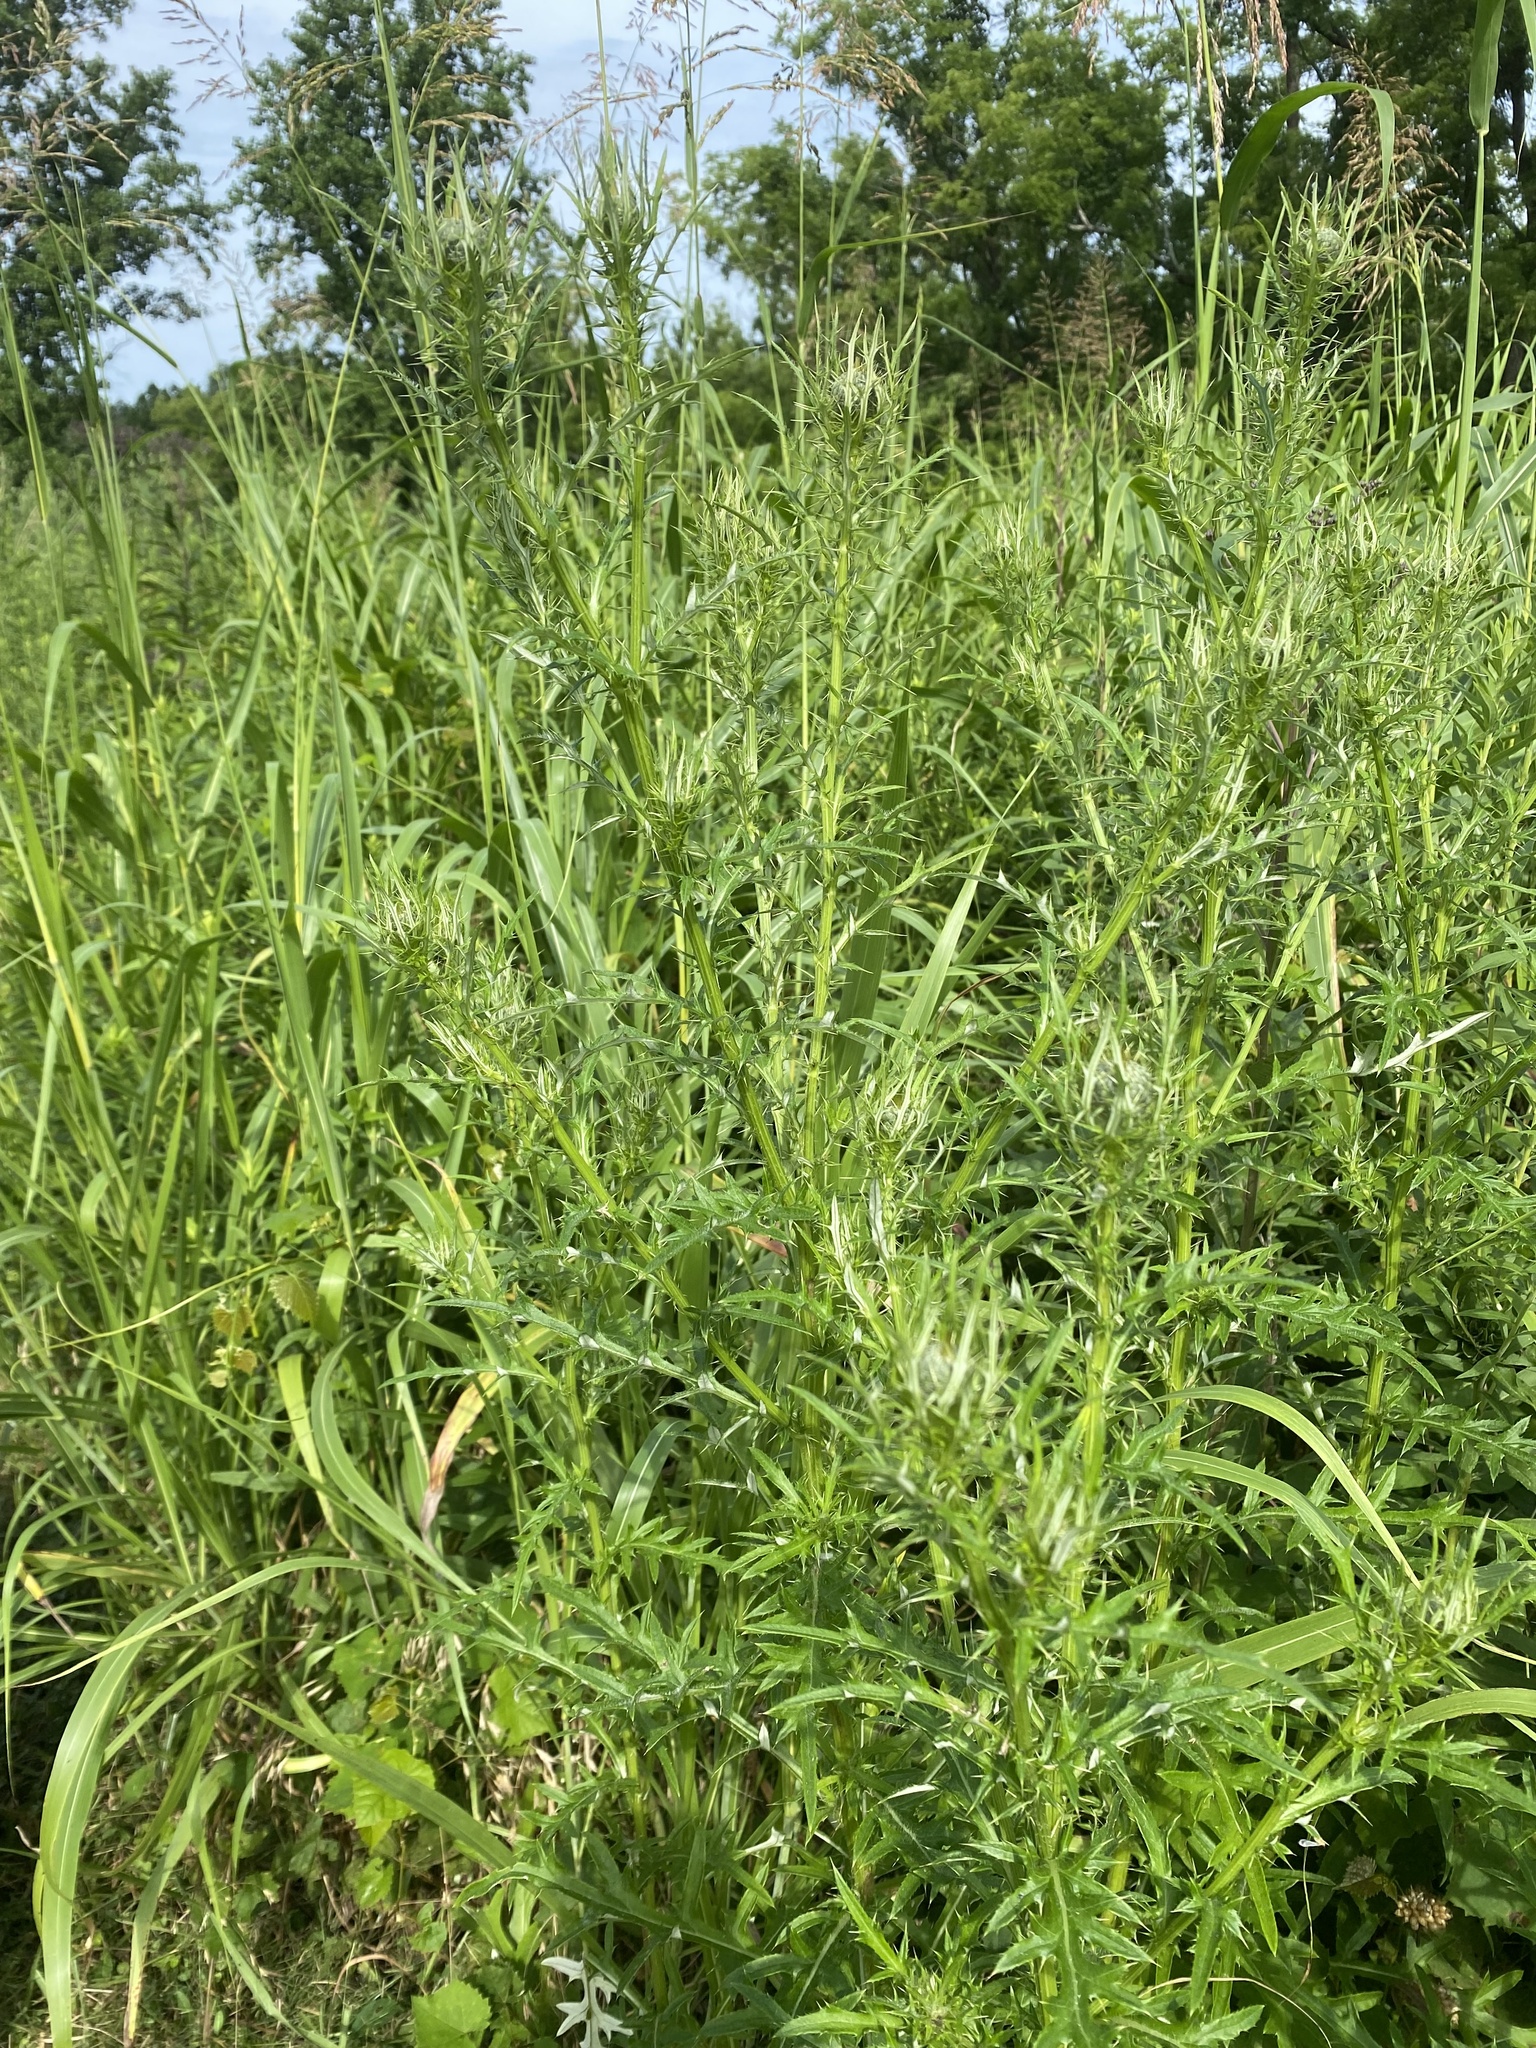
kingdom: Plantae
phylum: Tracheophyta
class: Magnoliopsida
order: Asterales
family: Asteraceae
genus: Cirsium
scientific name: Cirsium discolor
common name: Field thistle
